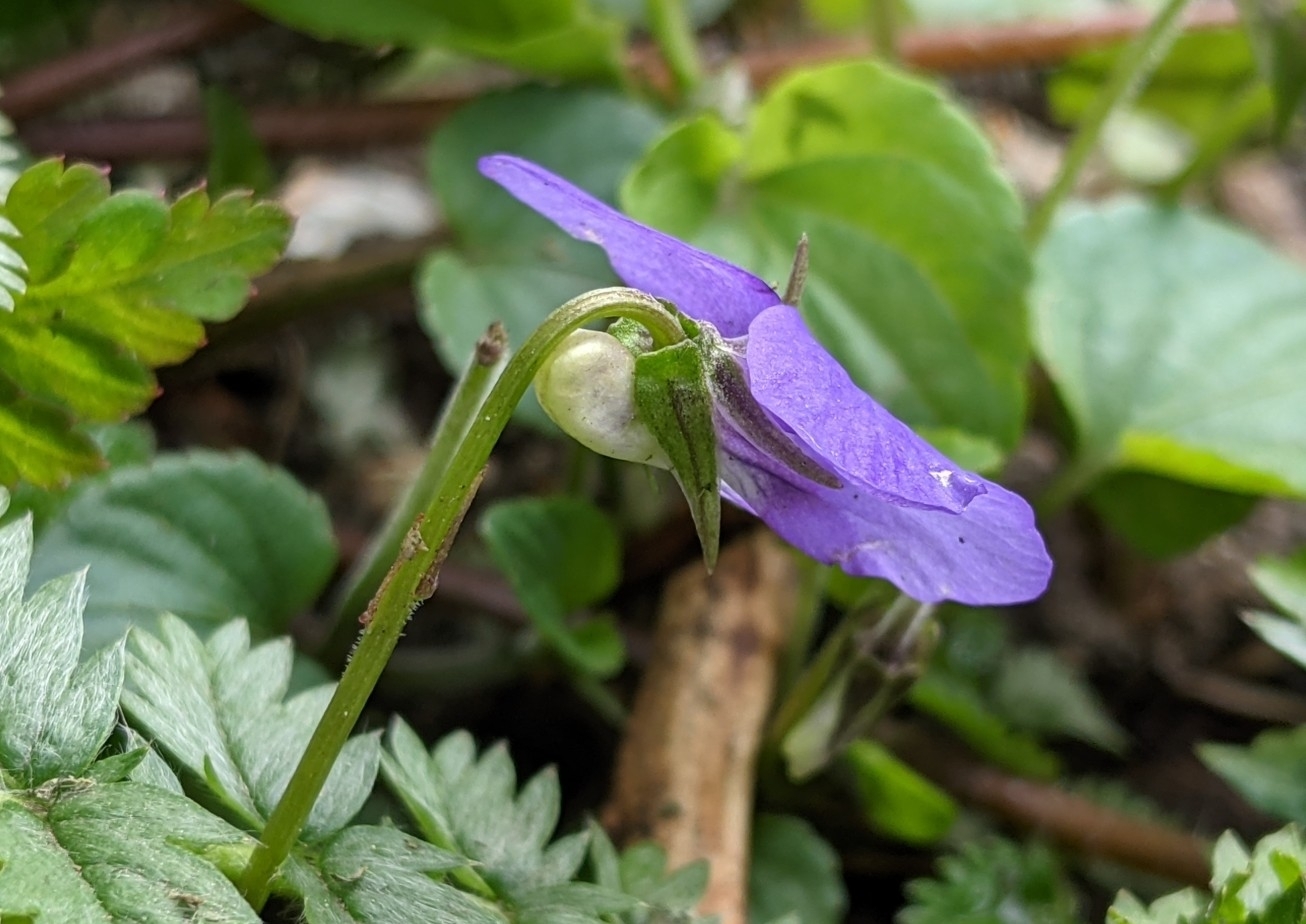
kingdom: Plantae
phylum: Tracheophyta
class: Magnoliopsida
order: Malpighiales
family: Violaceae
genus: Viola
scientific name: Viola riviniana
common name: Common dog-violet
